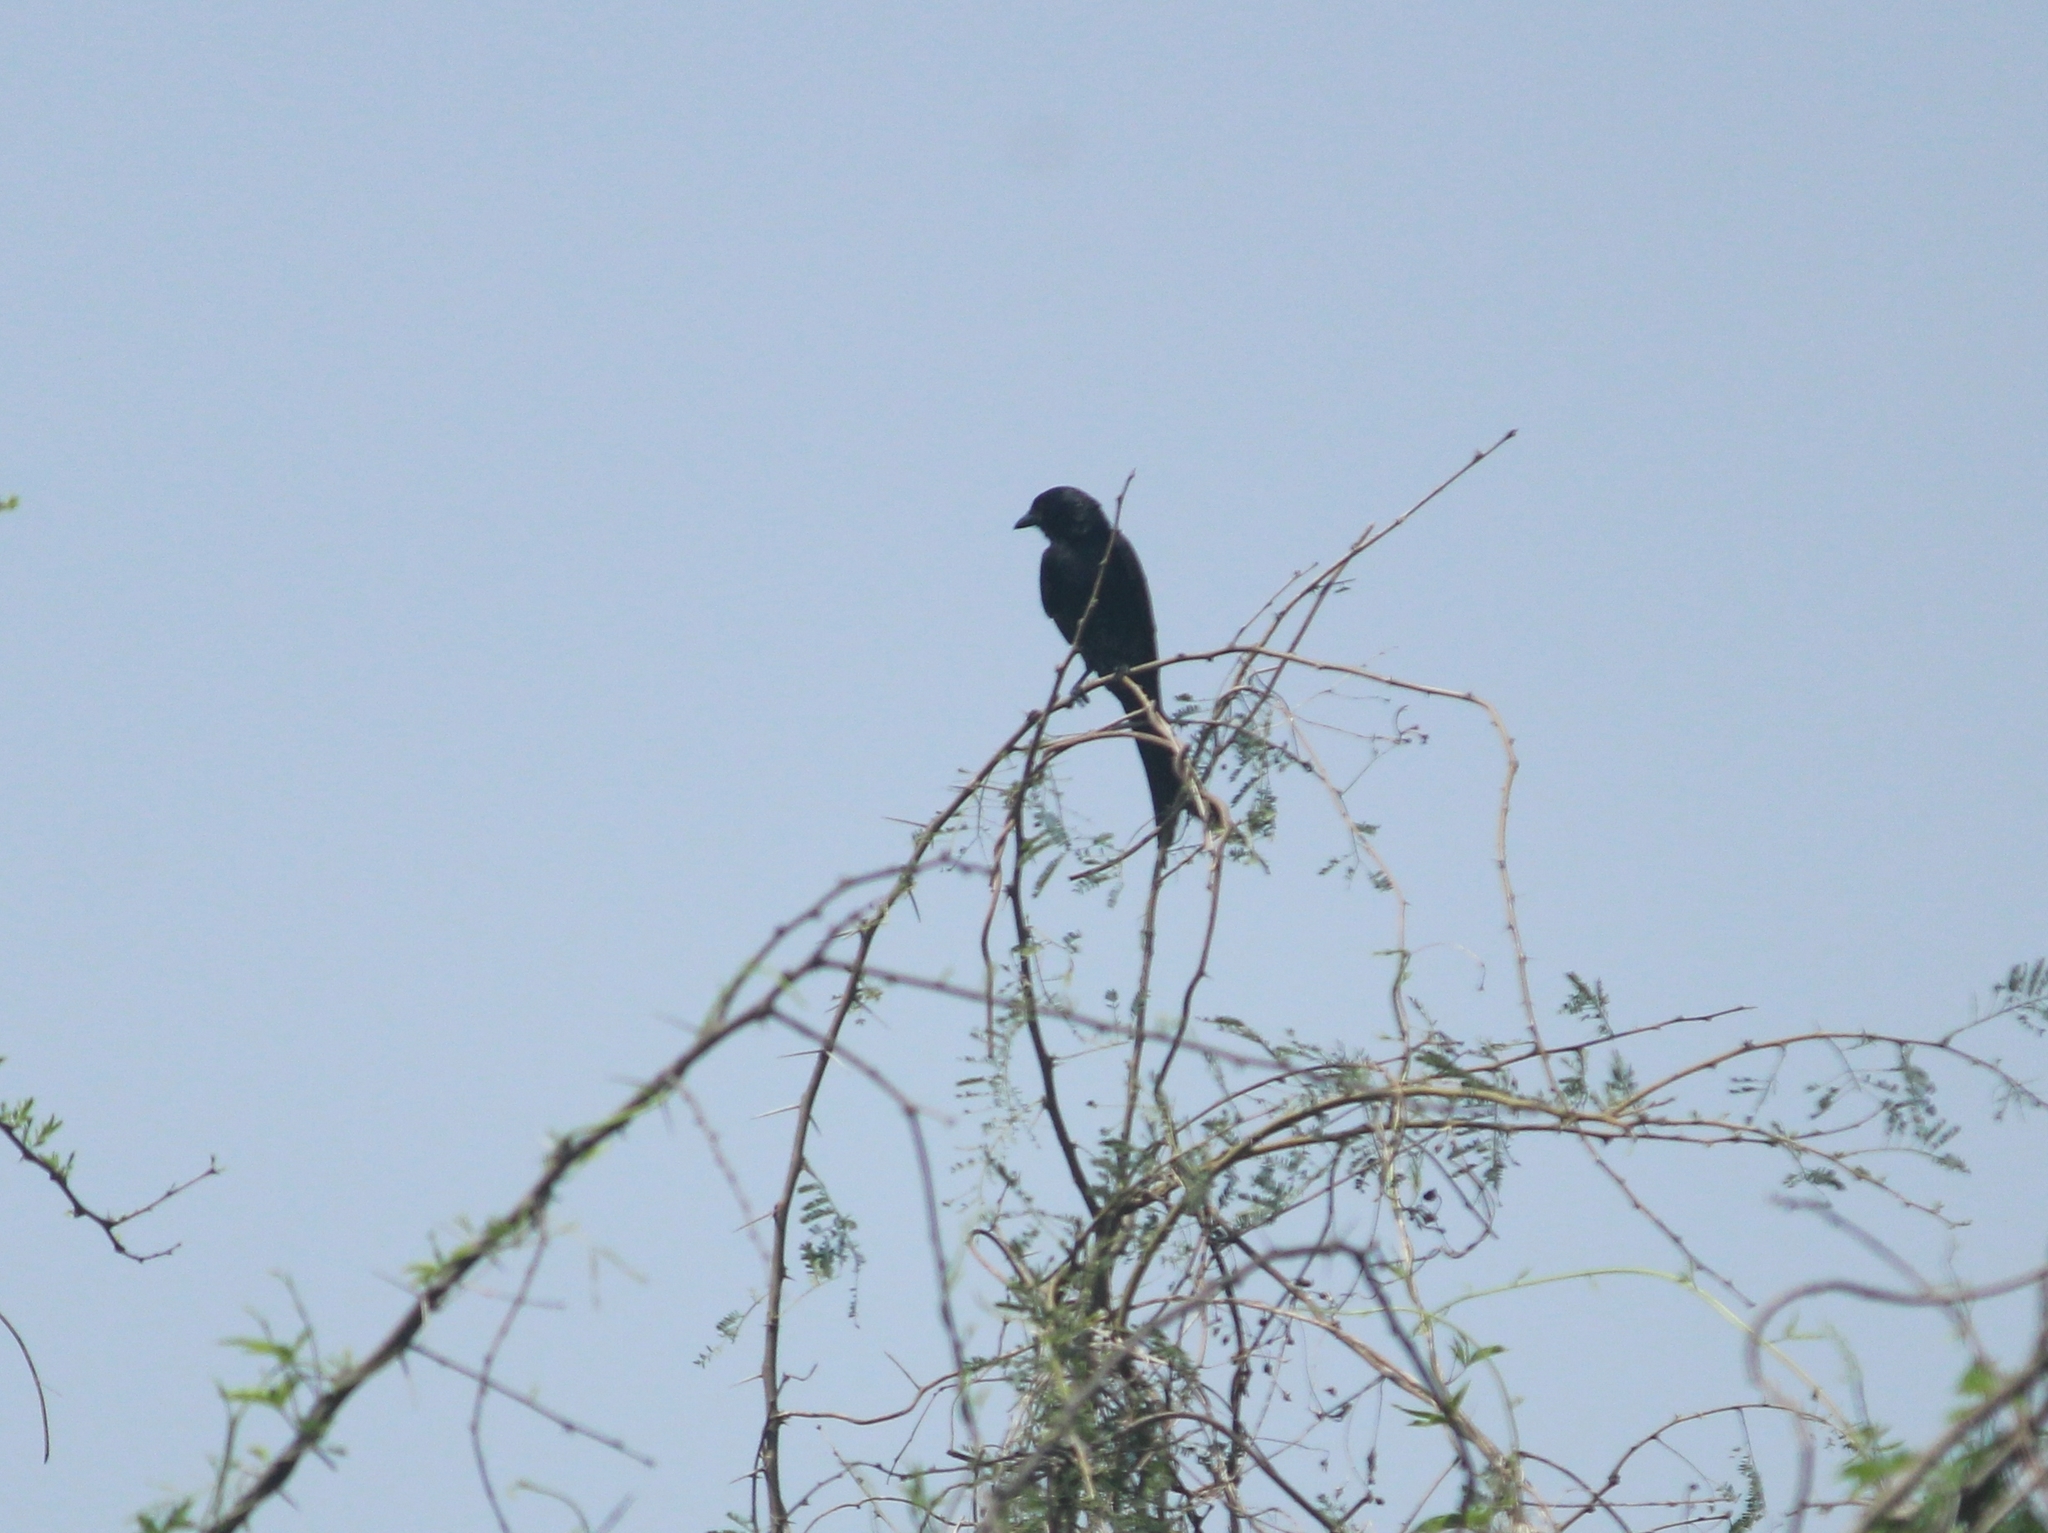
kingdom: Animalia
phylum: Chordata
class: Aves
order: Passeriformes
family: Dicruridae
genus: Dicrurus
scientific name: Dicrurus macrocercus
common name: Black drongo
